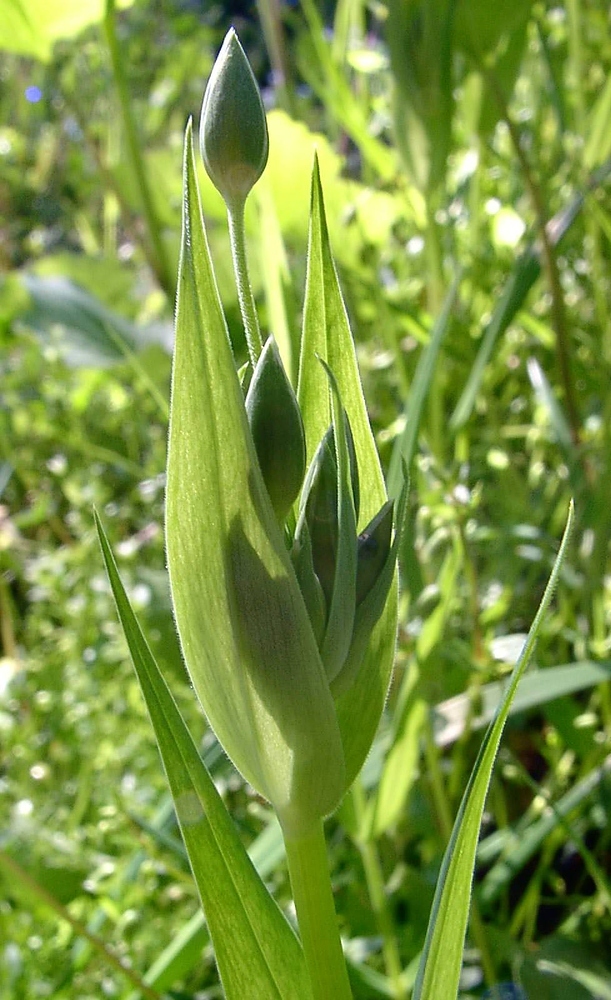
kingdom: Plantae
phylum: Tracheophyta
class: Magnoliopsida
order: Caryophyllales
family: Caryophyllaceae
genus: Rabelera
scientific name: Rabelera holostea
